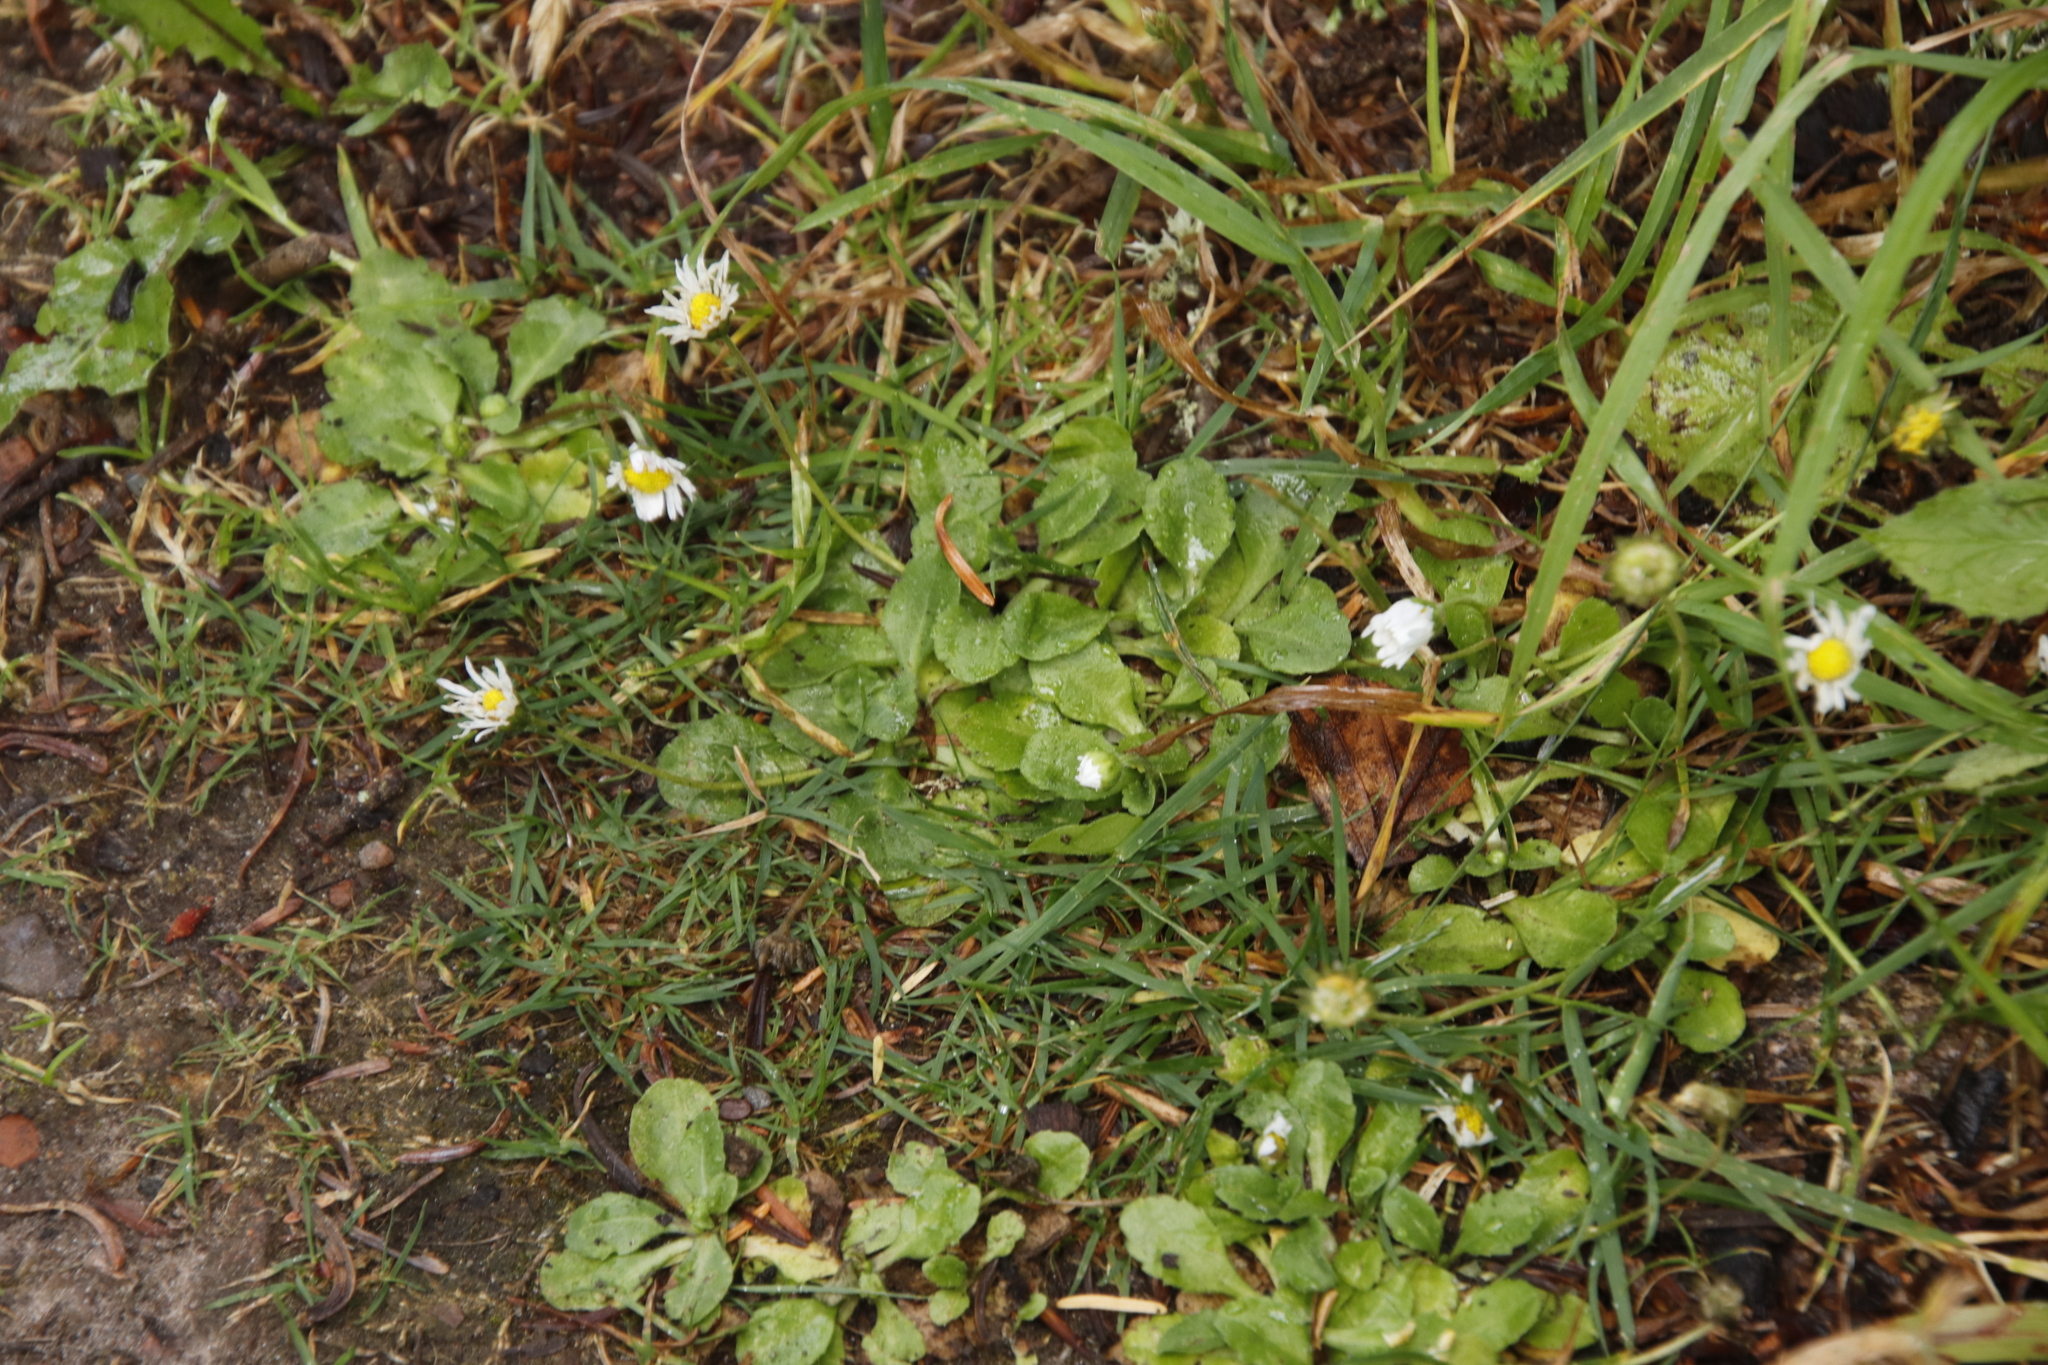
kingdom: Plantae
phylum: Tracheophyta
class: Magnoliopsida
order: Asterales
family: Asteraceae
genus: Bellis
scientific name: Bellis perennis
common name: Lawndaisy
